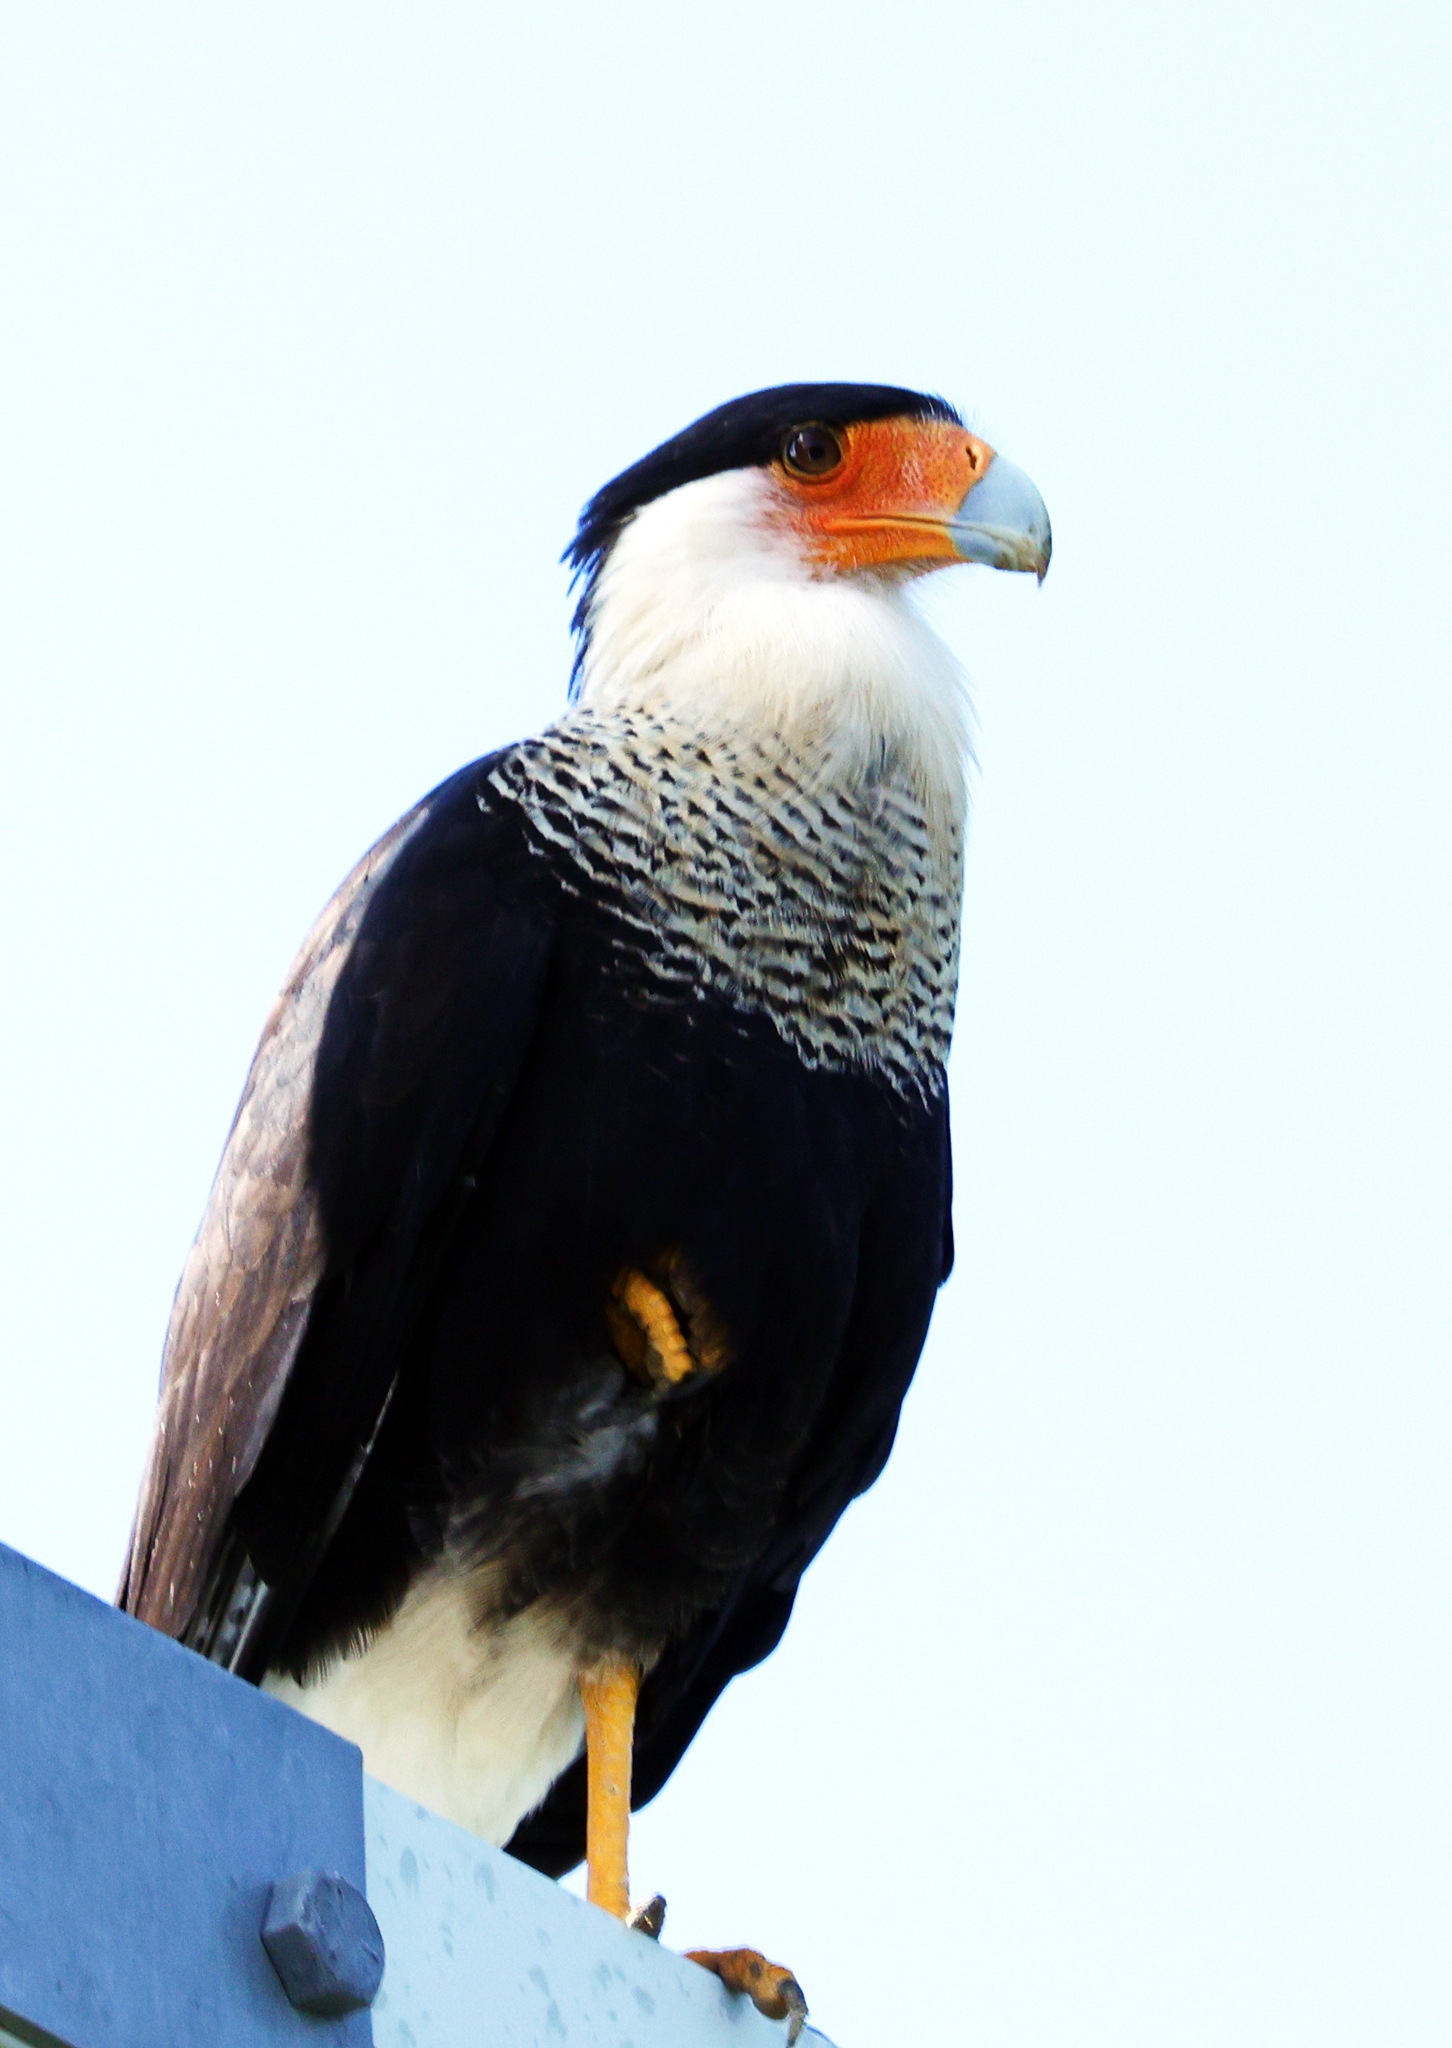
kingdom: Animalia
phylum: Chordata
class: Aves
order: Falconiformes
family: Falconidae
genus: Caracara
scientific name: Caracara plancus
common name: Southern caracara
